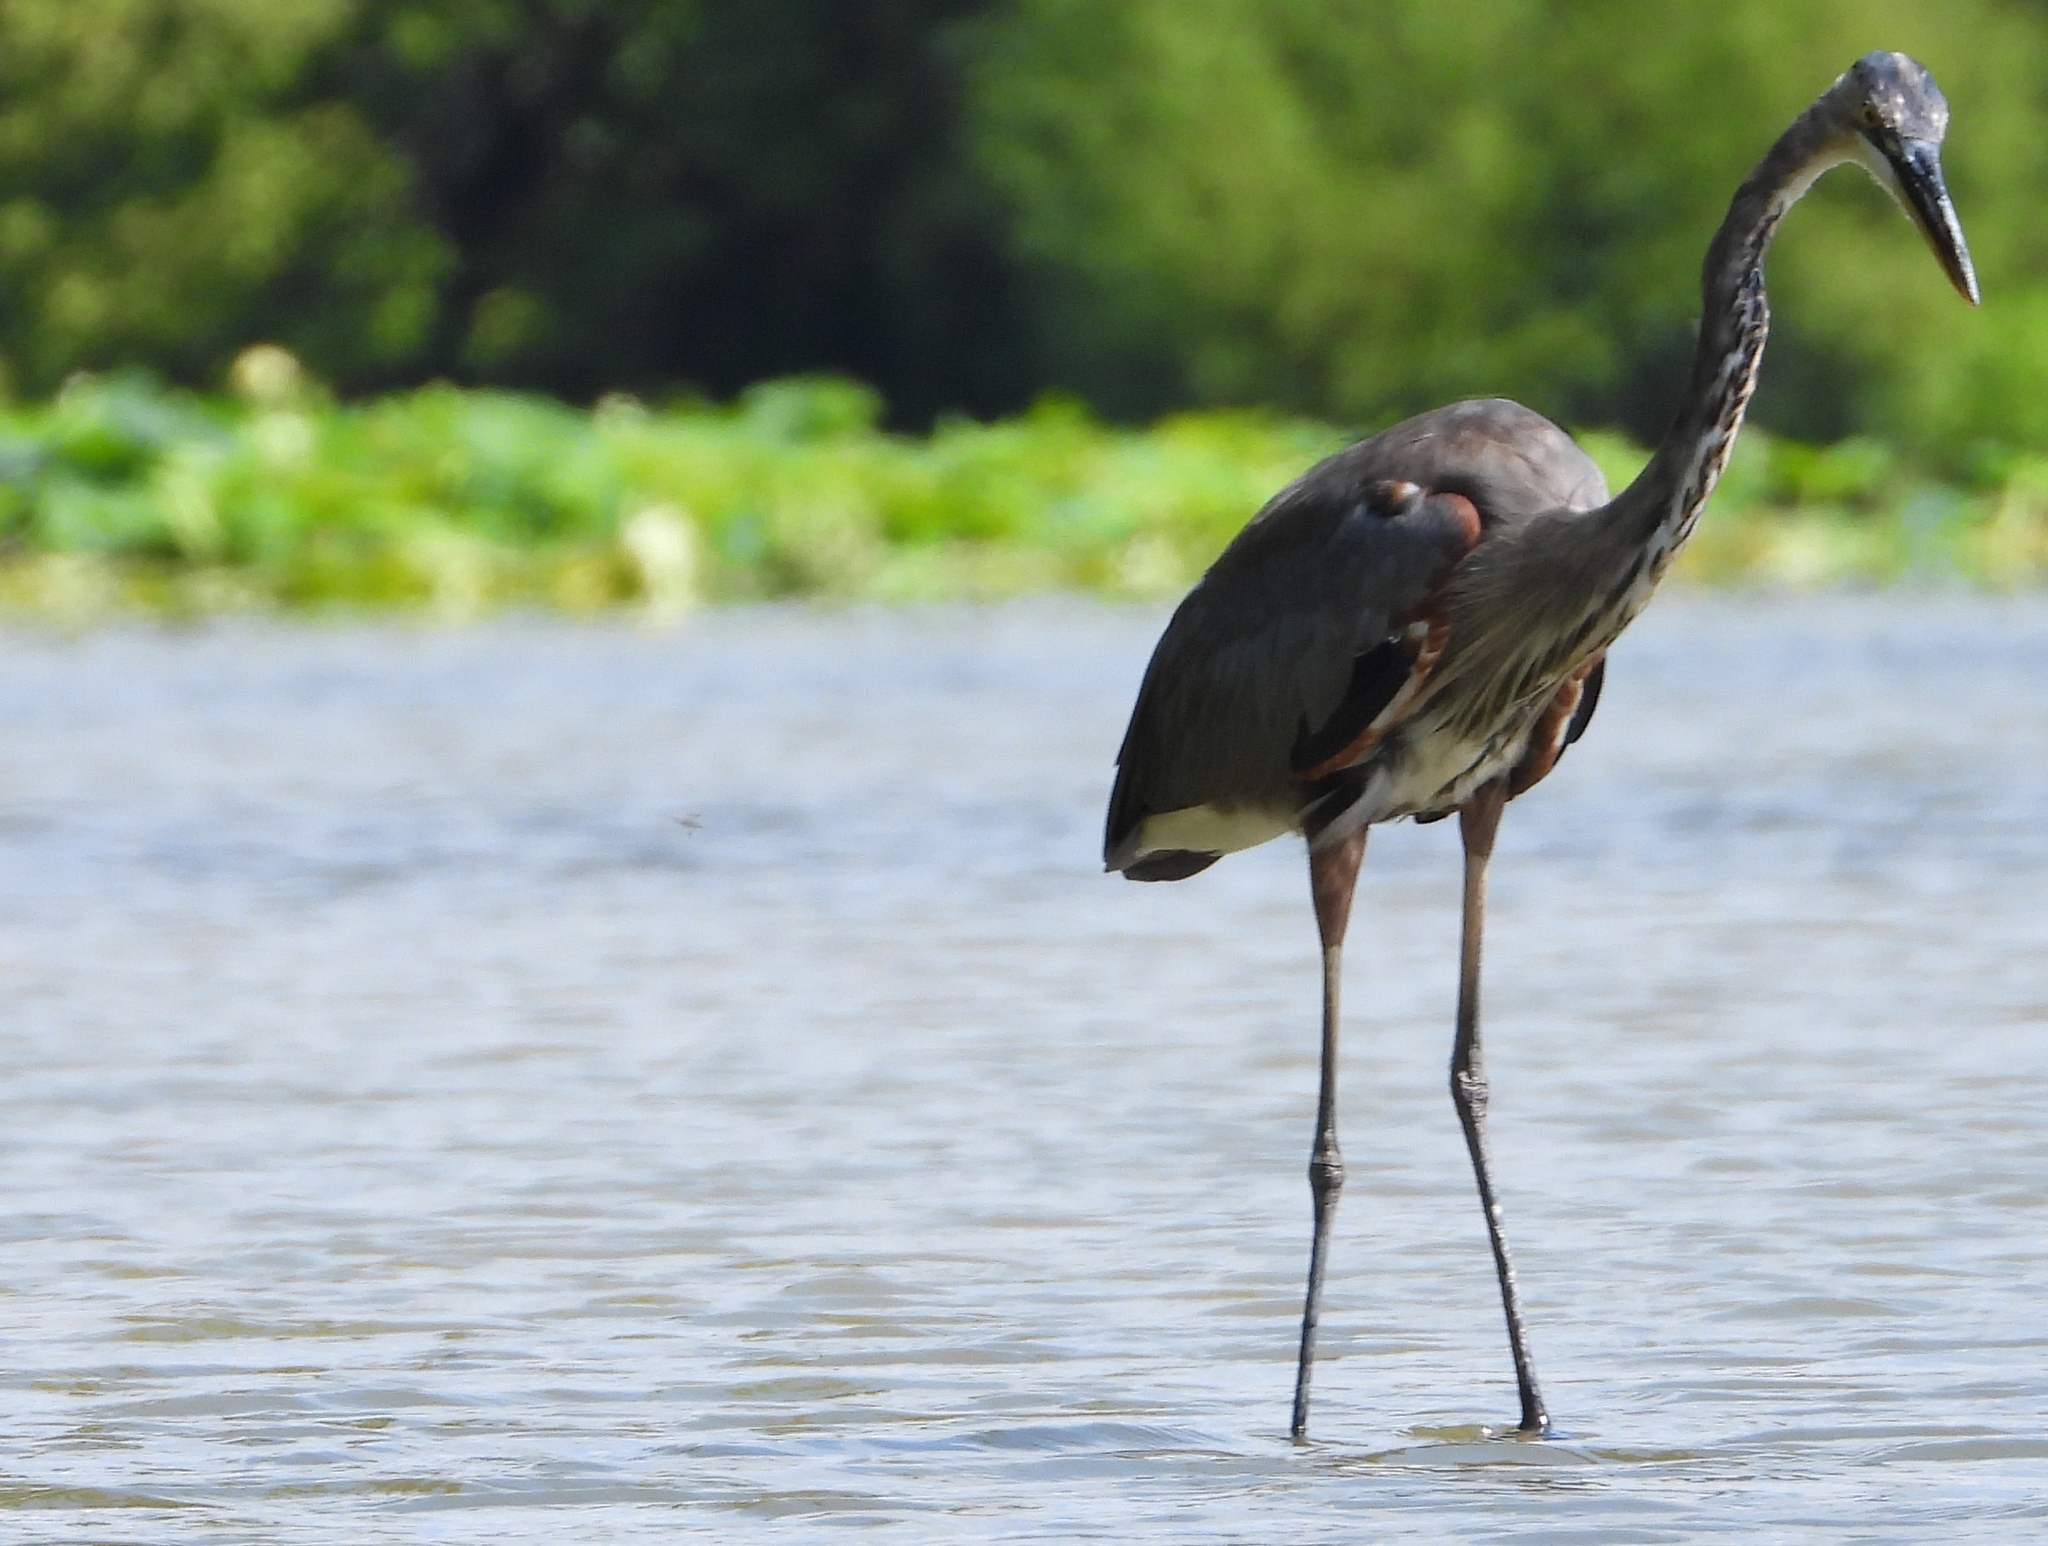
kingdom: Animalia
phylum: Chordata
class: Aves
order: Pelecaniformes
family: Ardeidae
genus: Ardea
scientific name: Ardea herodias
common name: Great blue heron
